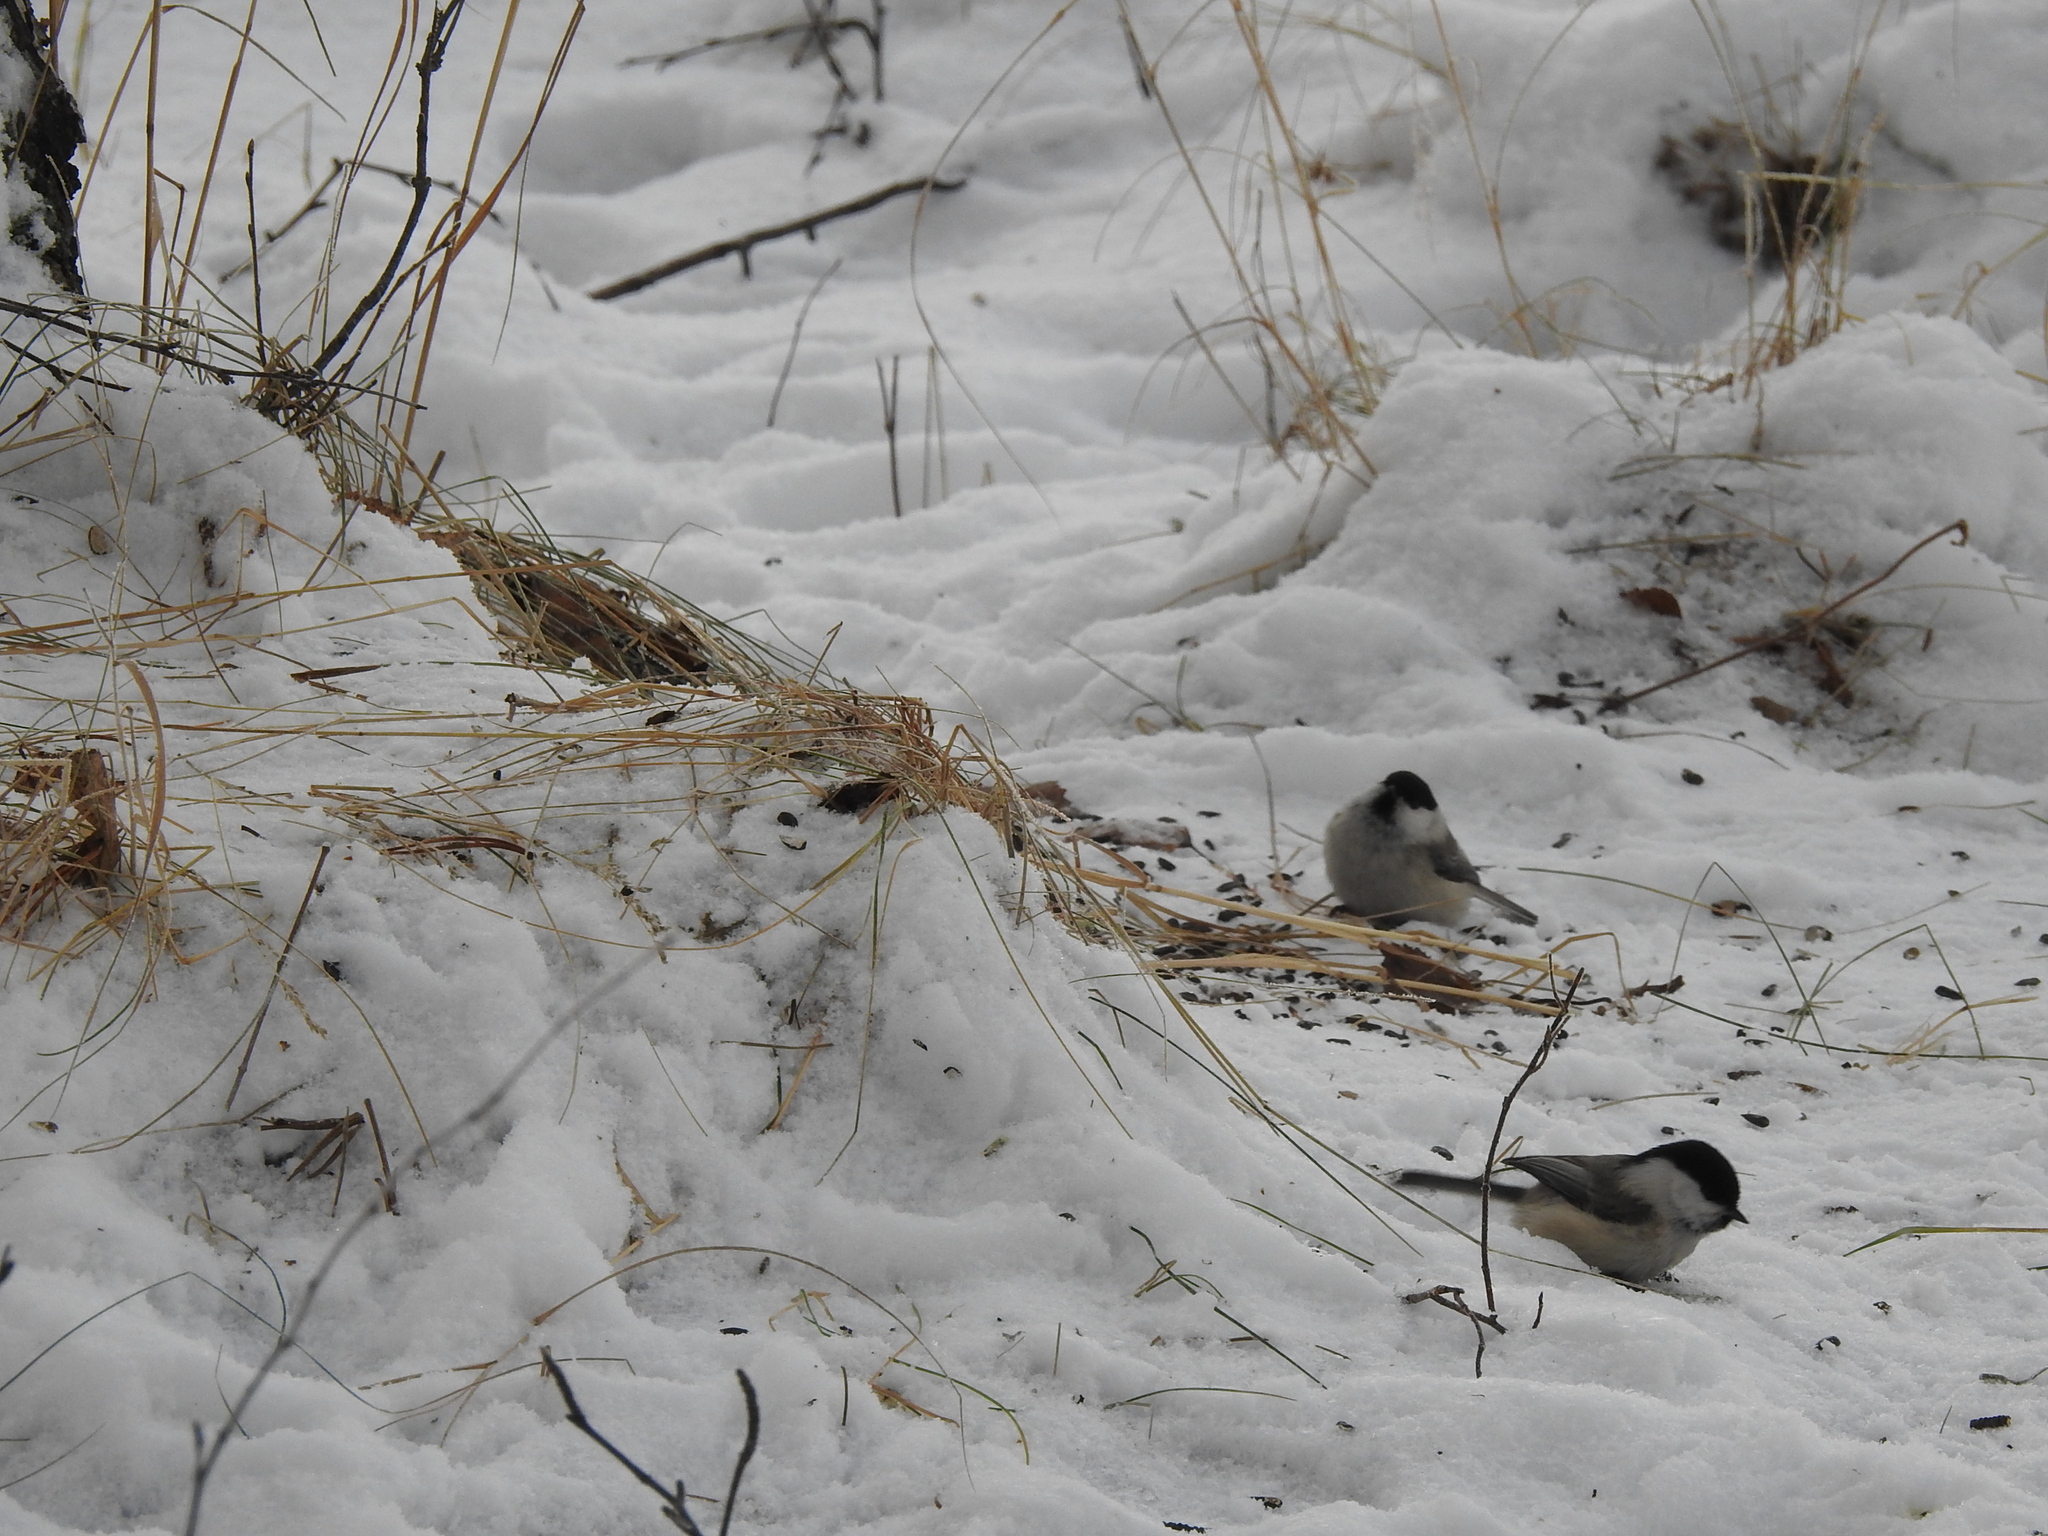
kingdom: Animalia
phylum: Chordata
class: Aves
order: Passeriformes
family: Paridae
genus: Poecile
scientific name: Poecile montanus
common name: Willow tit
